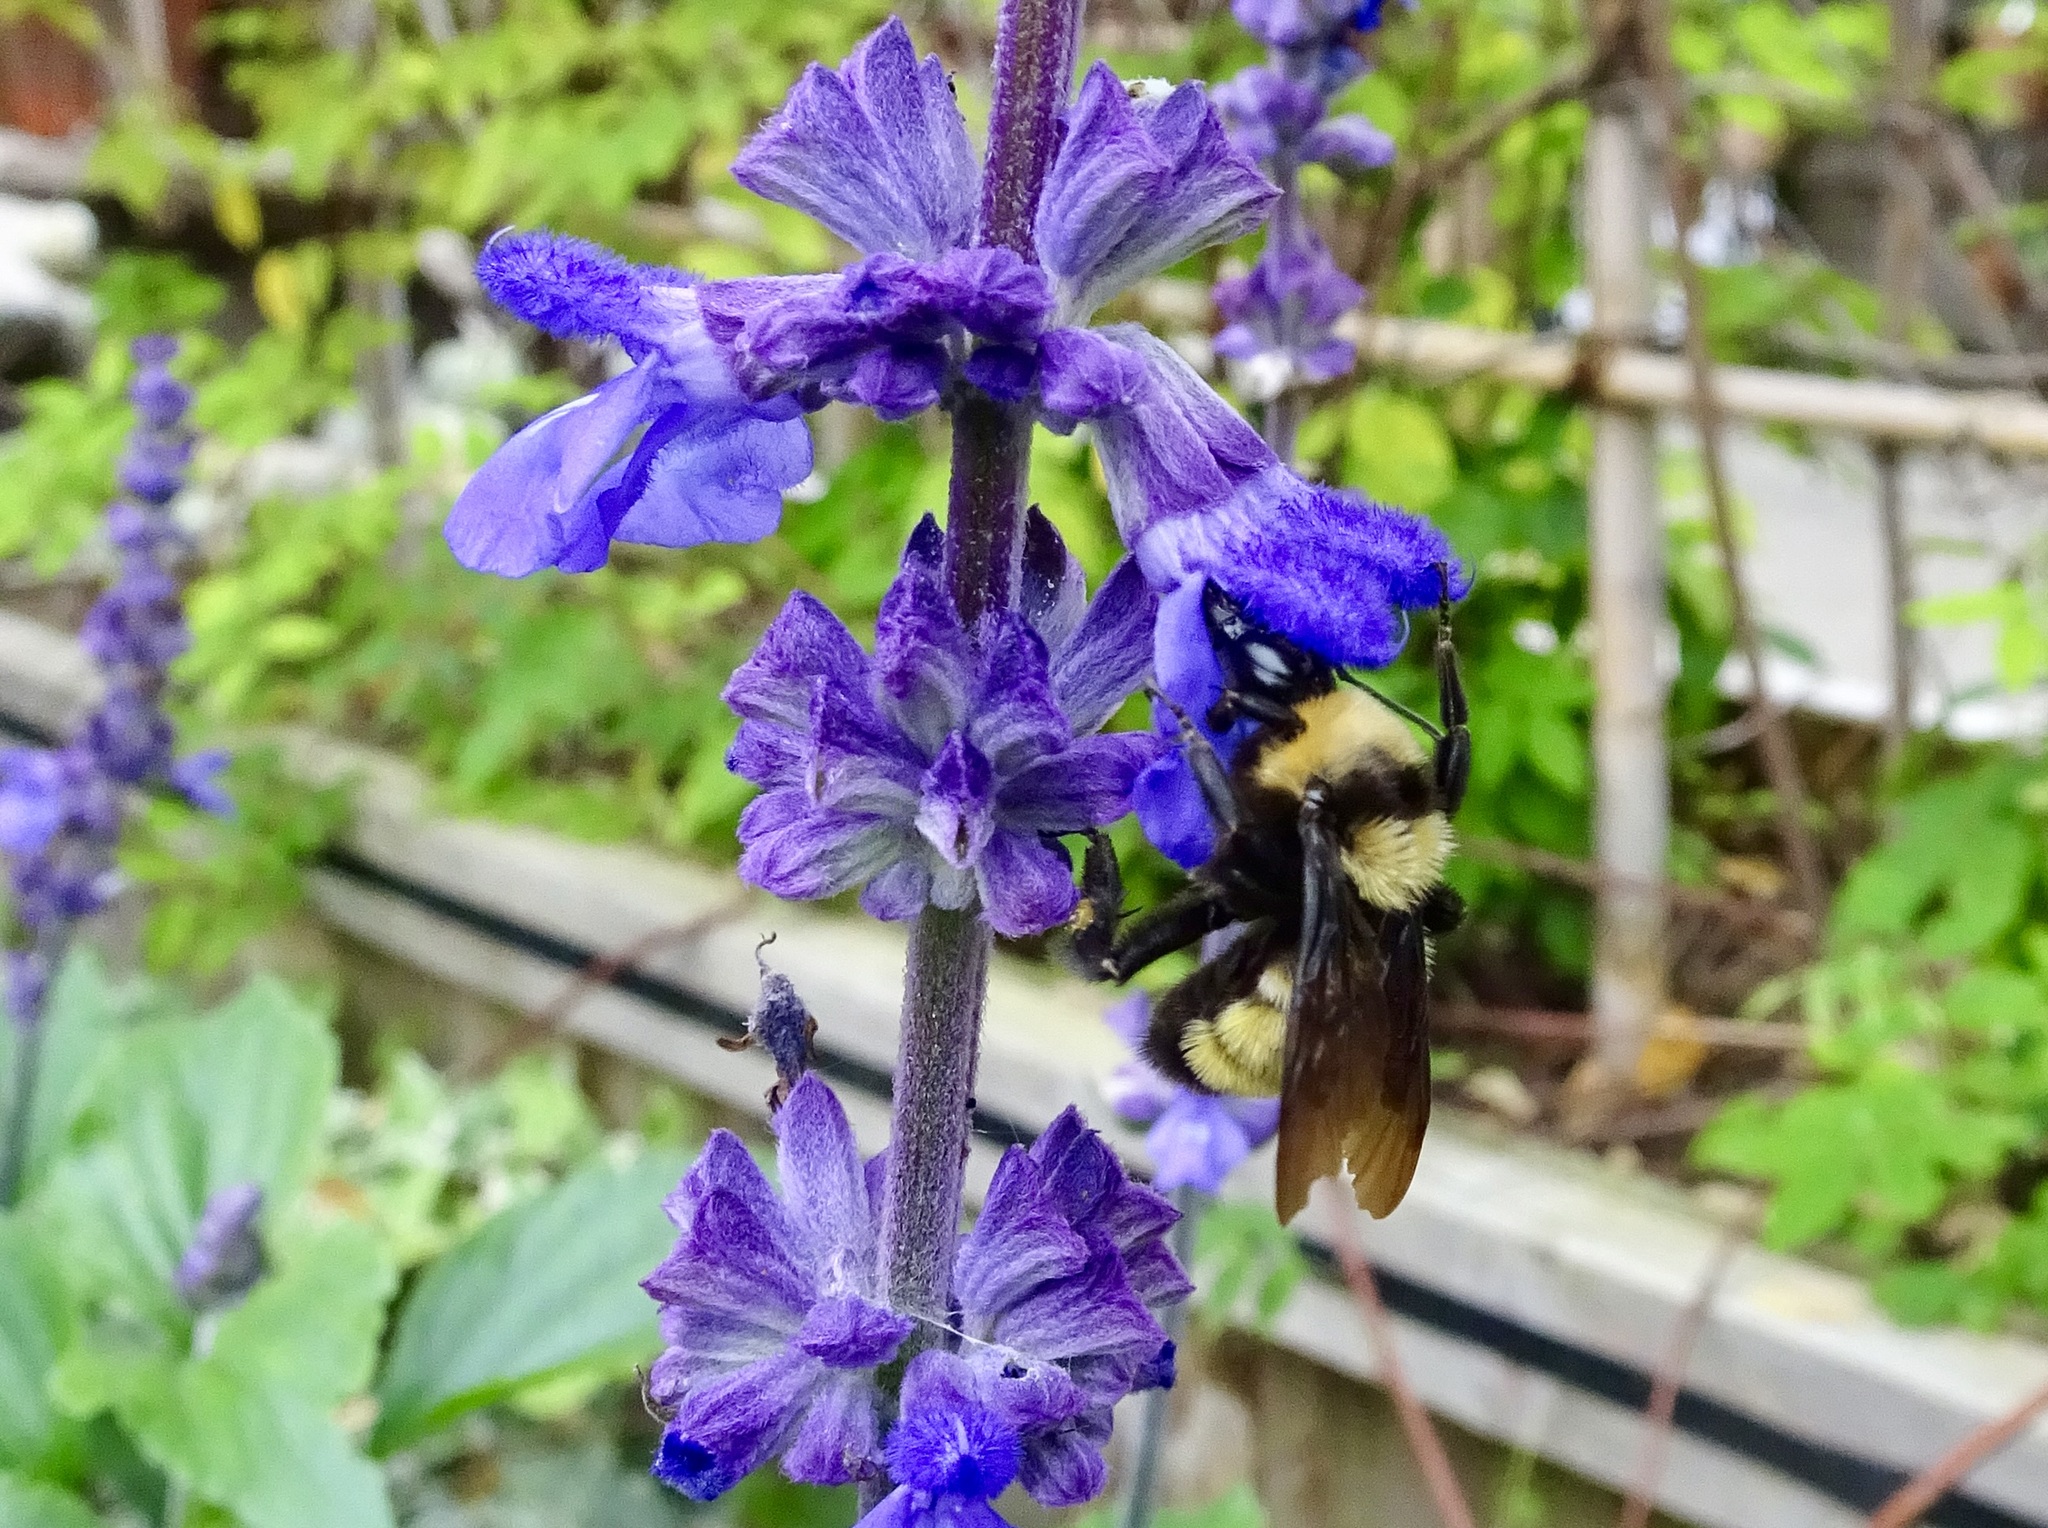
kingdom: Animalia
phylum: Arthropoda
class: Insecta
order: Hymenoptera
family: Apidae
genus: Bombus
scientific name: Bombus sonorus
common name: Sonoran bumble bee
